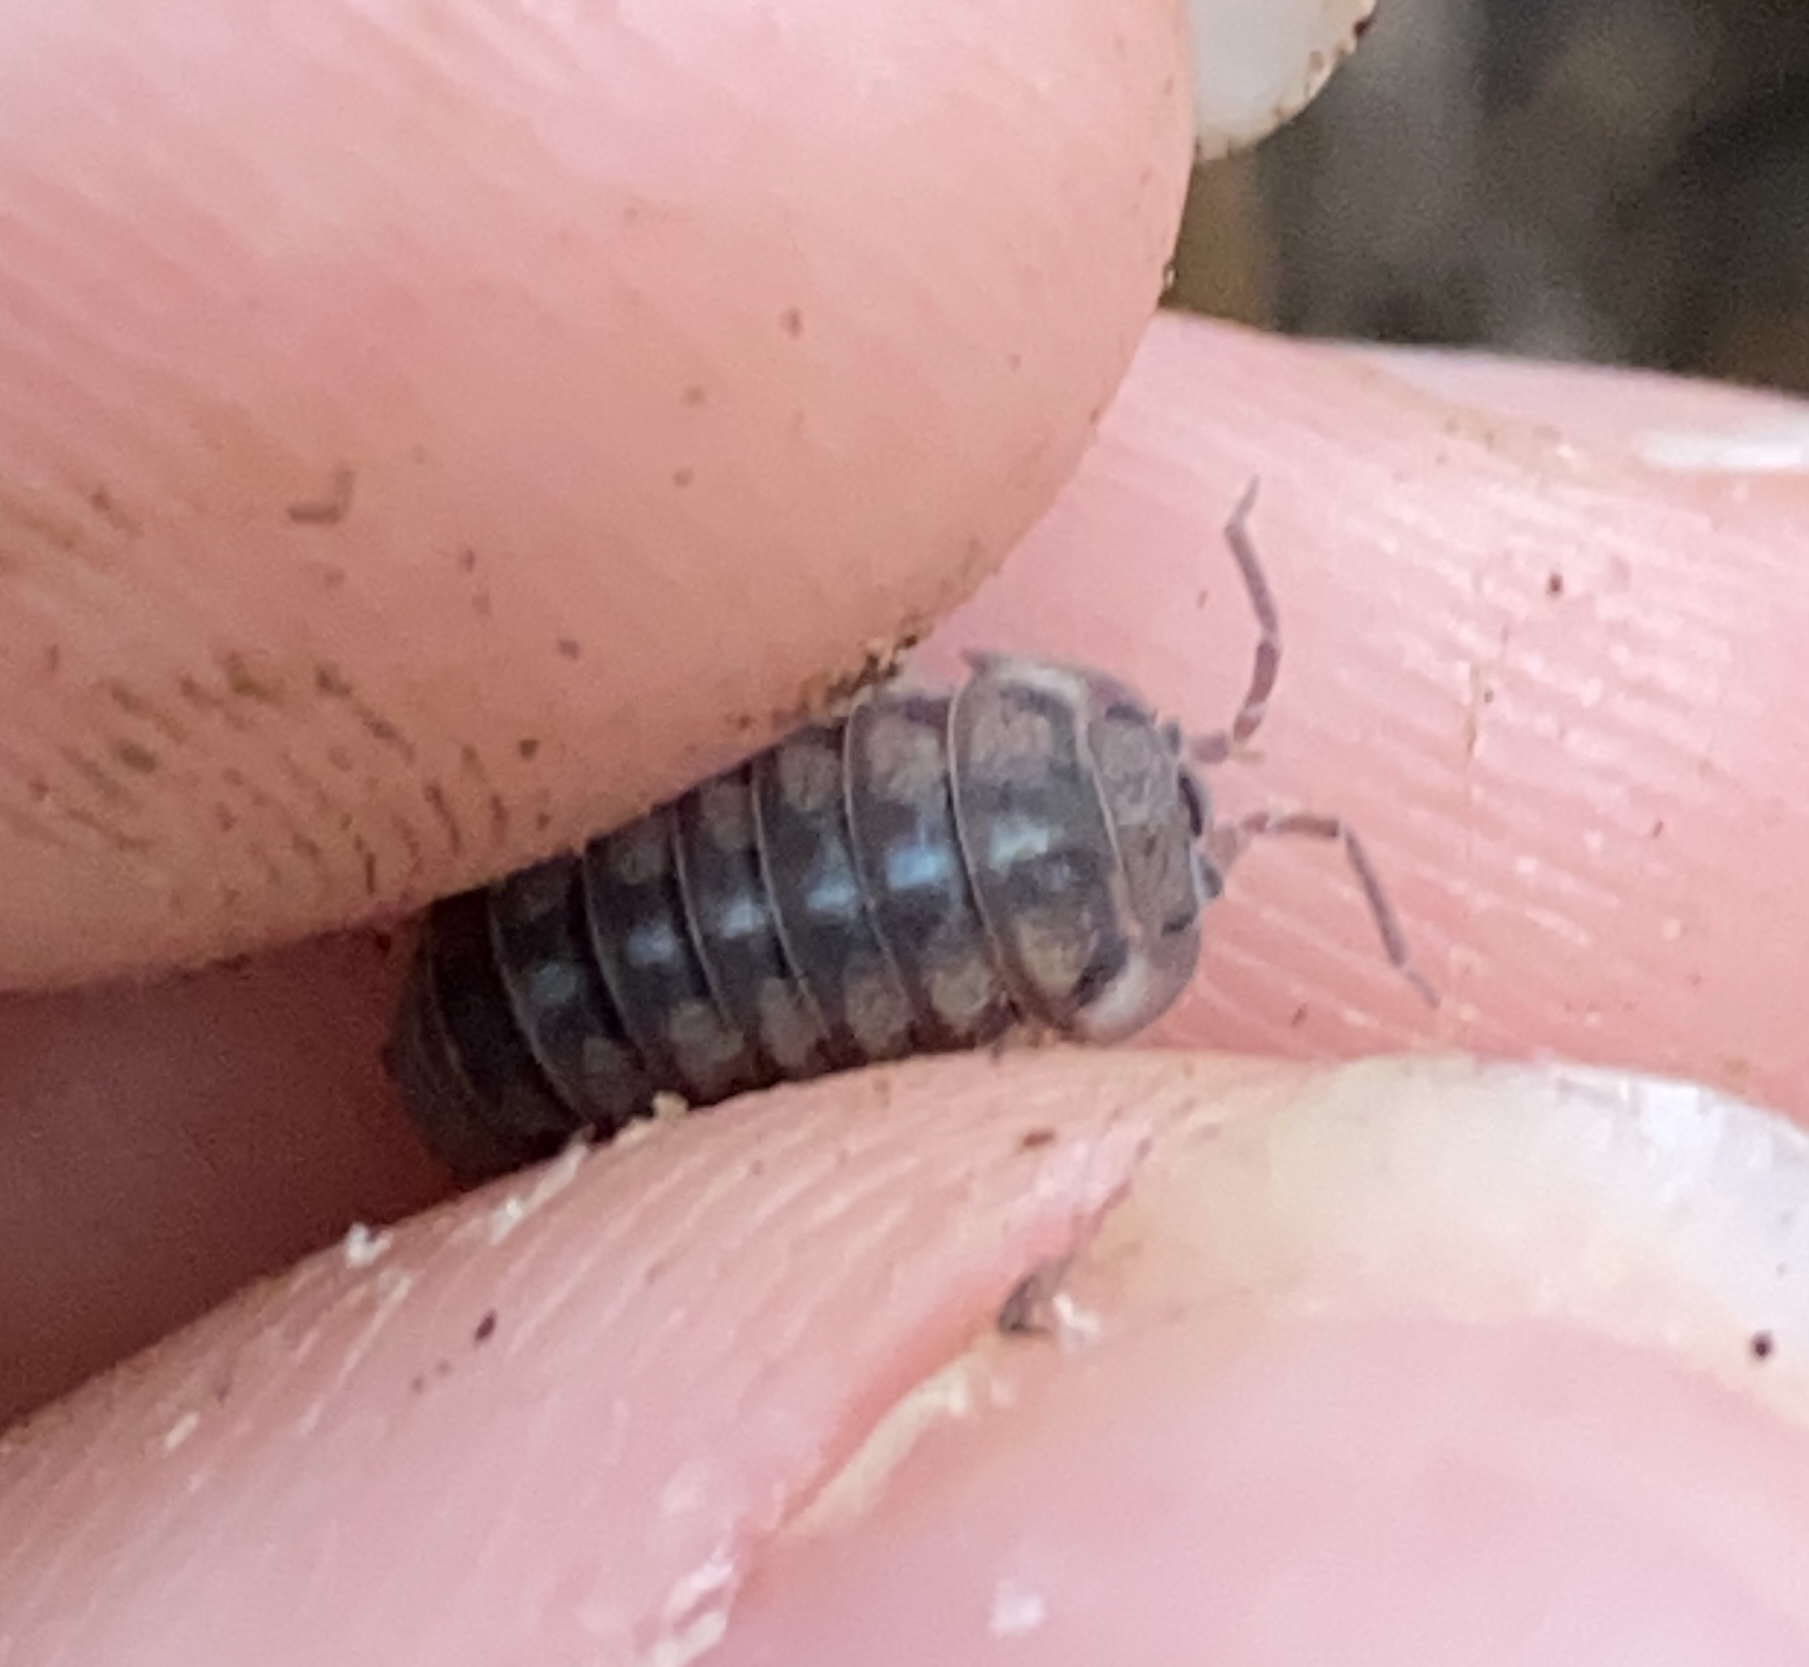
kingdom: Animalia
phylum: Arthropoda
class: Malacostraca
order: Isopoda
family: Armadillidiidae
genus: Armadillidium
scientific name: Armadillidium nasatum
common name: Isopod
